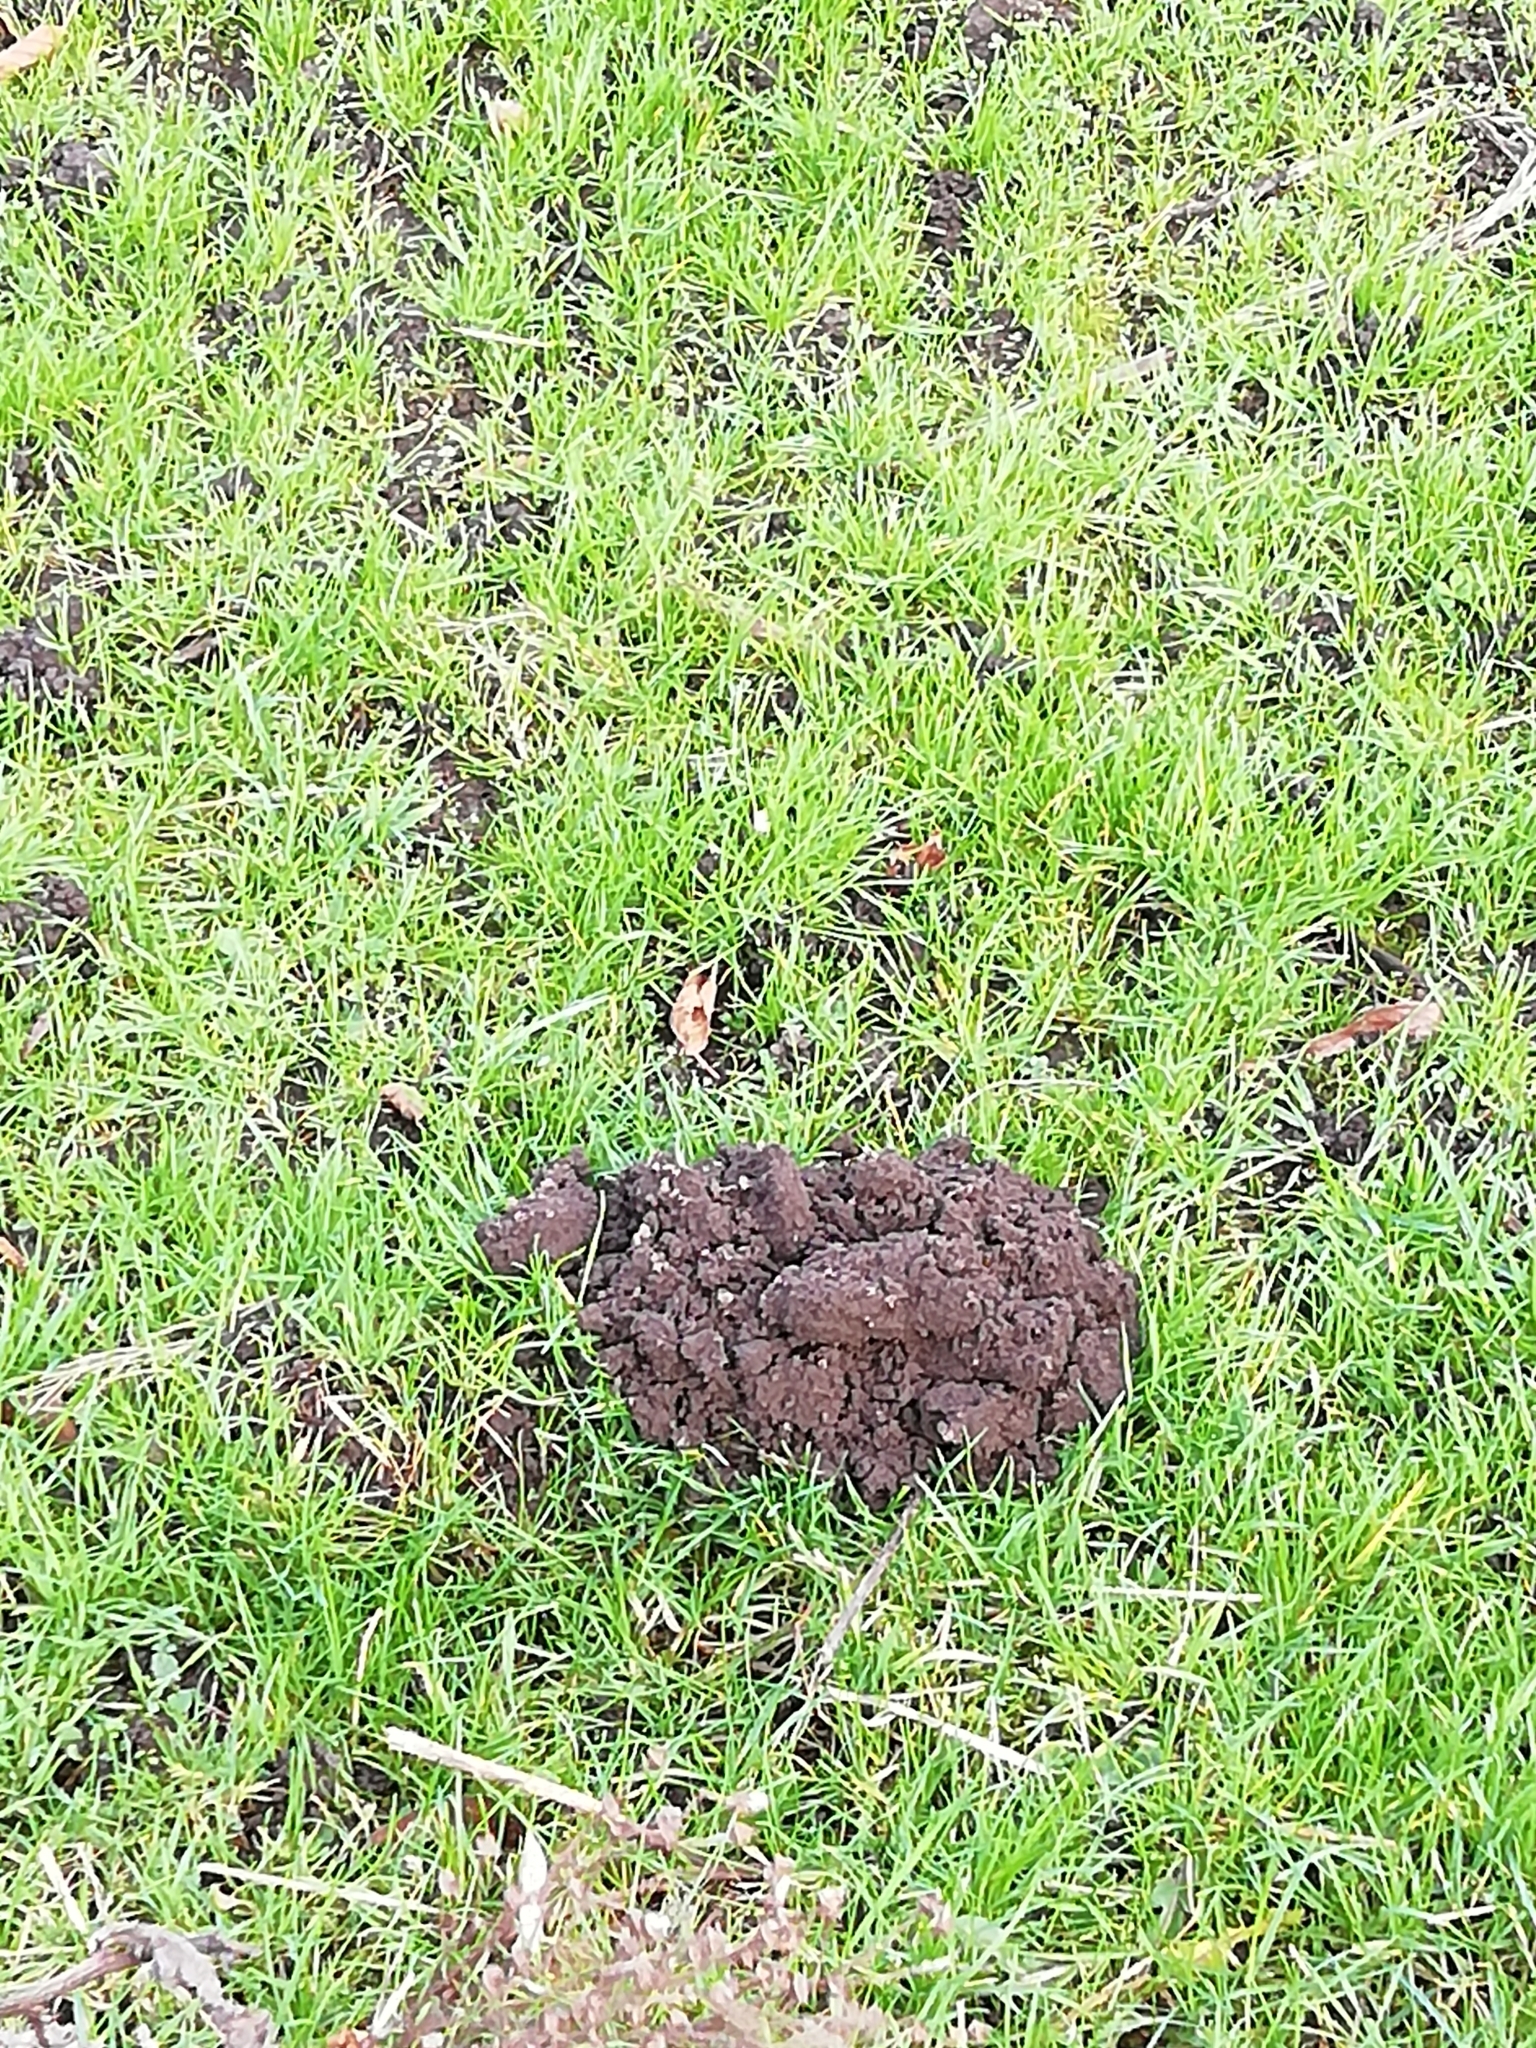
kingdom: Animalia
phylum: Chordata
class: Mammalia
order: Soricomorpha
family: Talpidae
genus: Talpa
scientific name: Talpa europaea
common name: European mole
